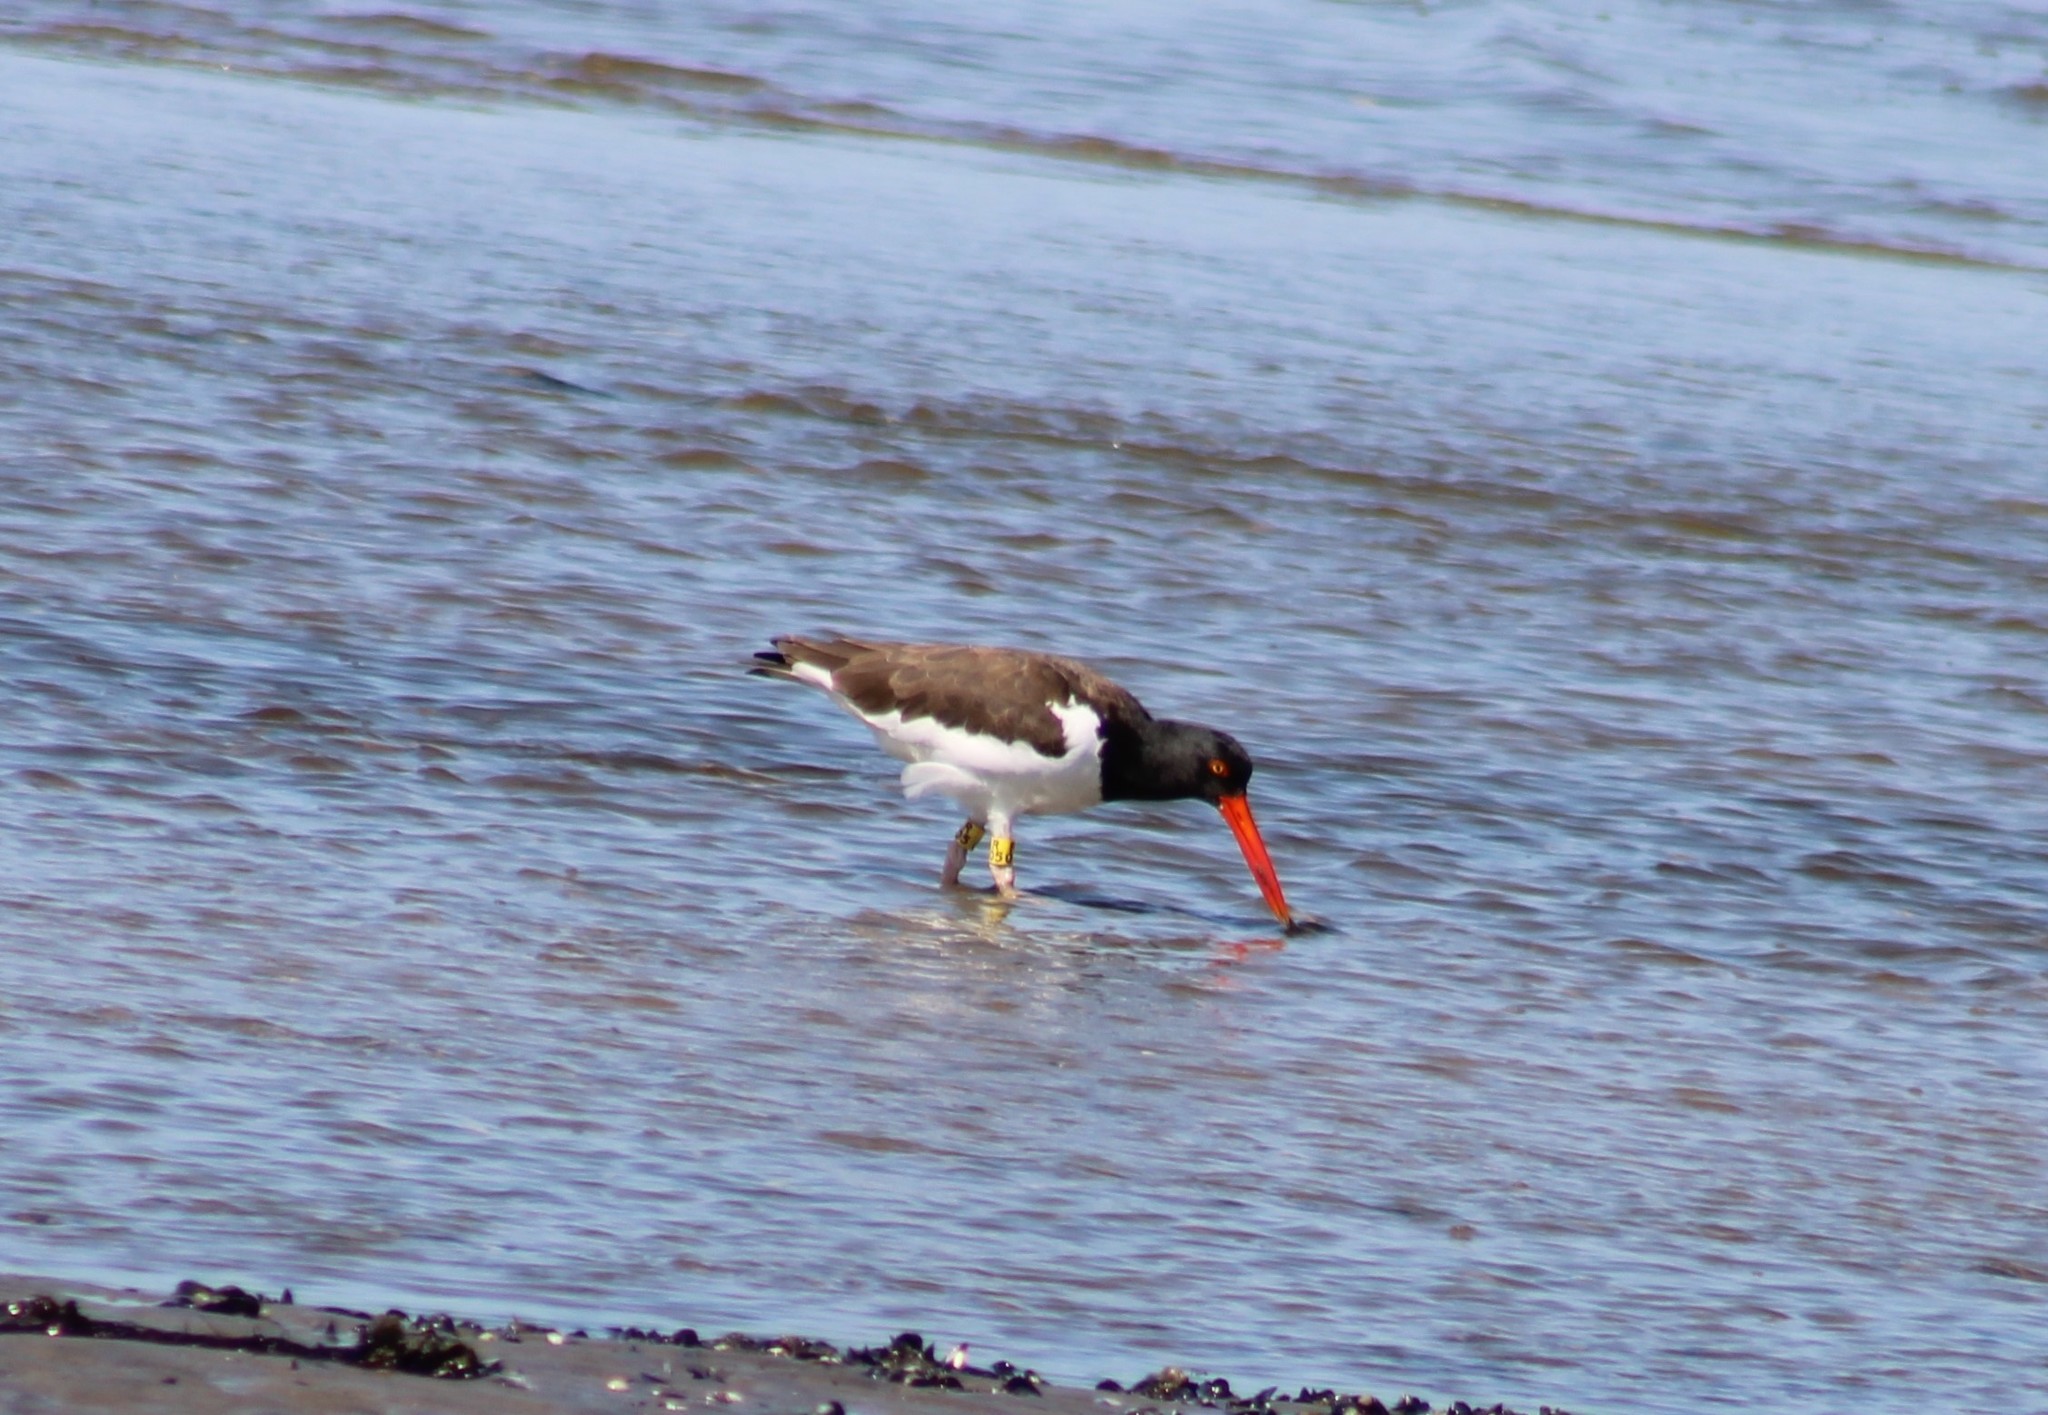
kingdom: Animalia
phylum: Chordata
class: Aves
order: Charadriiformes
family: Haematopodidae
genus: Haematopus
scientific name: Haematopus palliatus
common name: American oystercatcher
